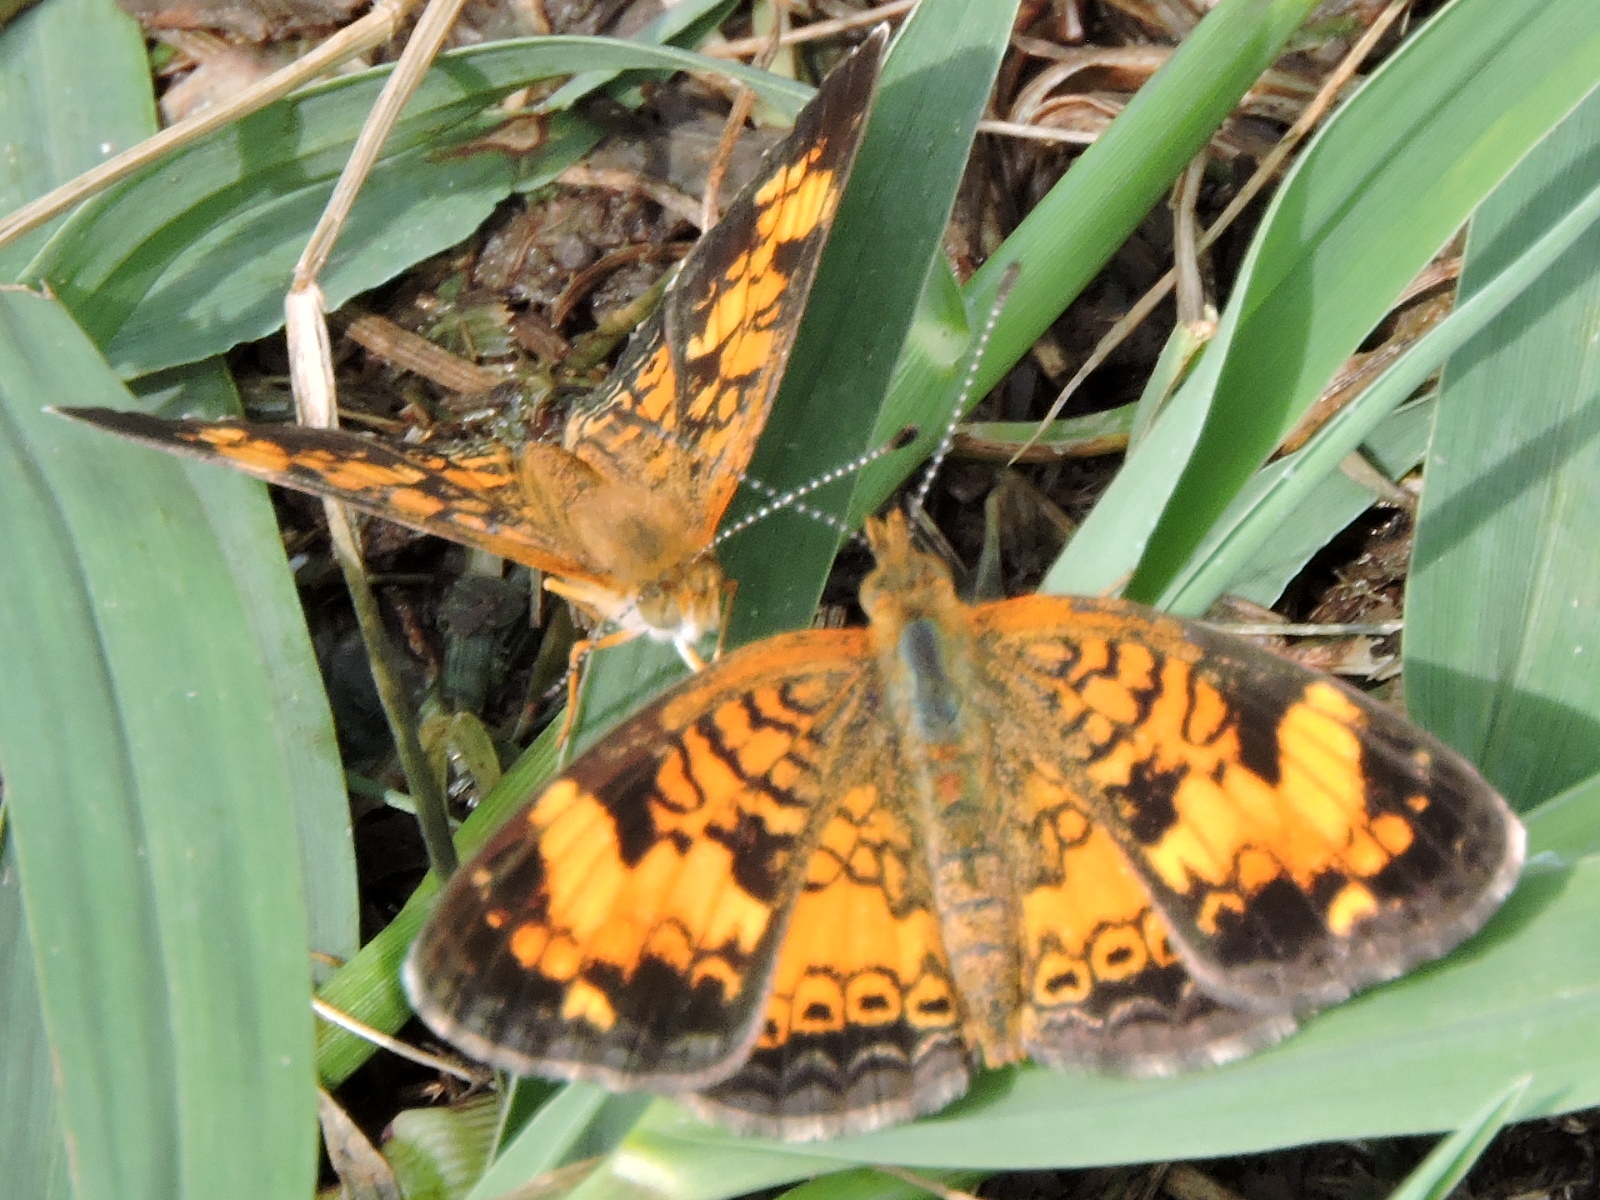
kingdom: Animalia
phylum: Arthropoda
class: Insecta
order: Lepidoptera
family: Nymphalidae
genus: Phyciodes
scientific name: Phyciodes tharos
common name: Pearl crescent
